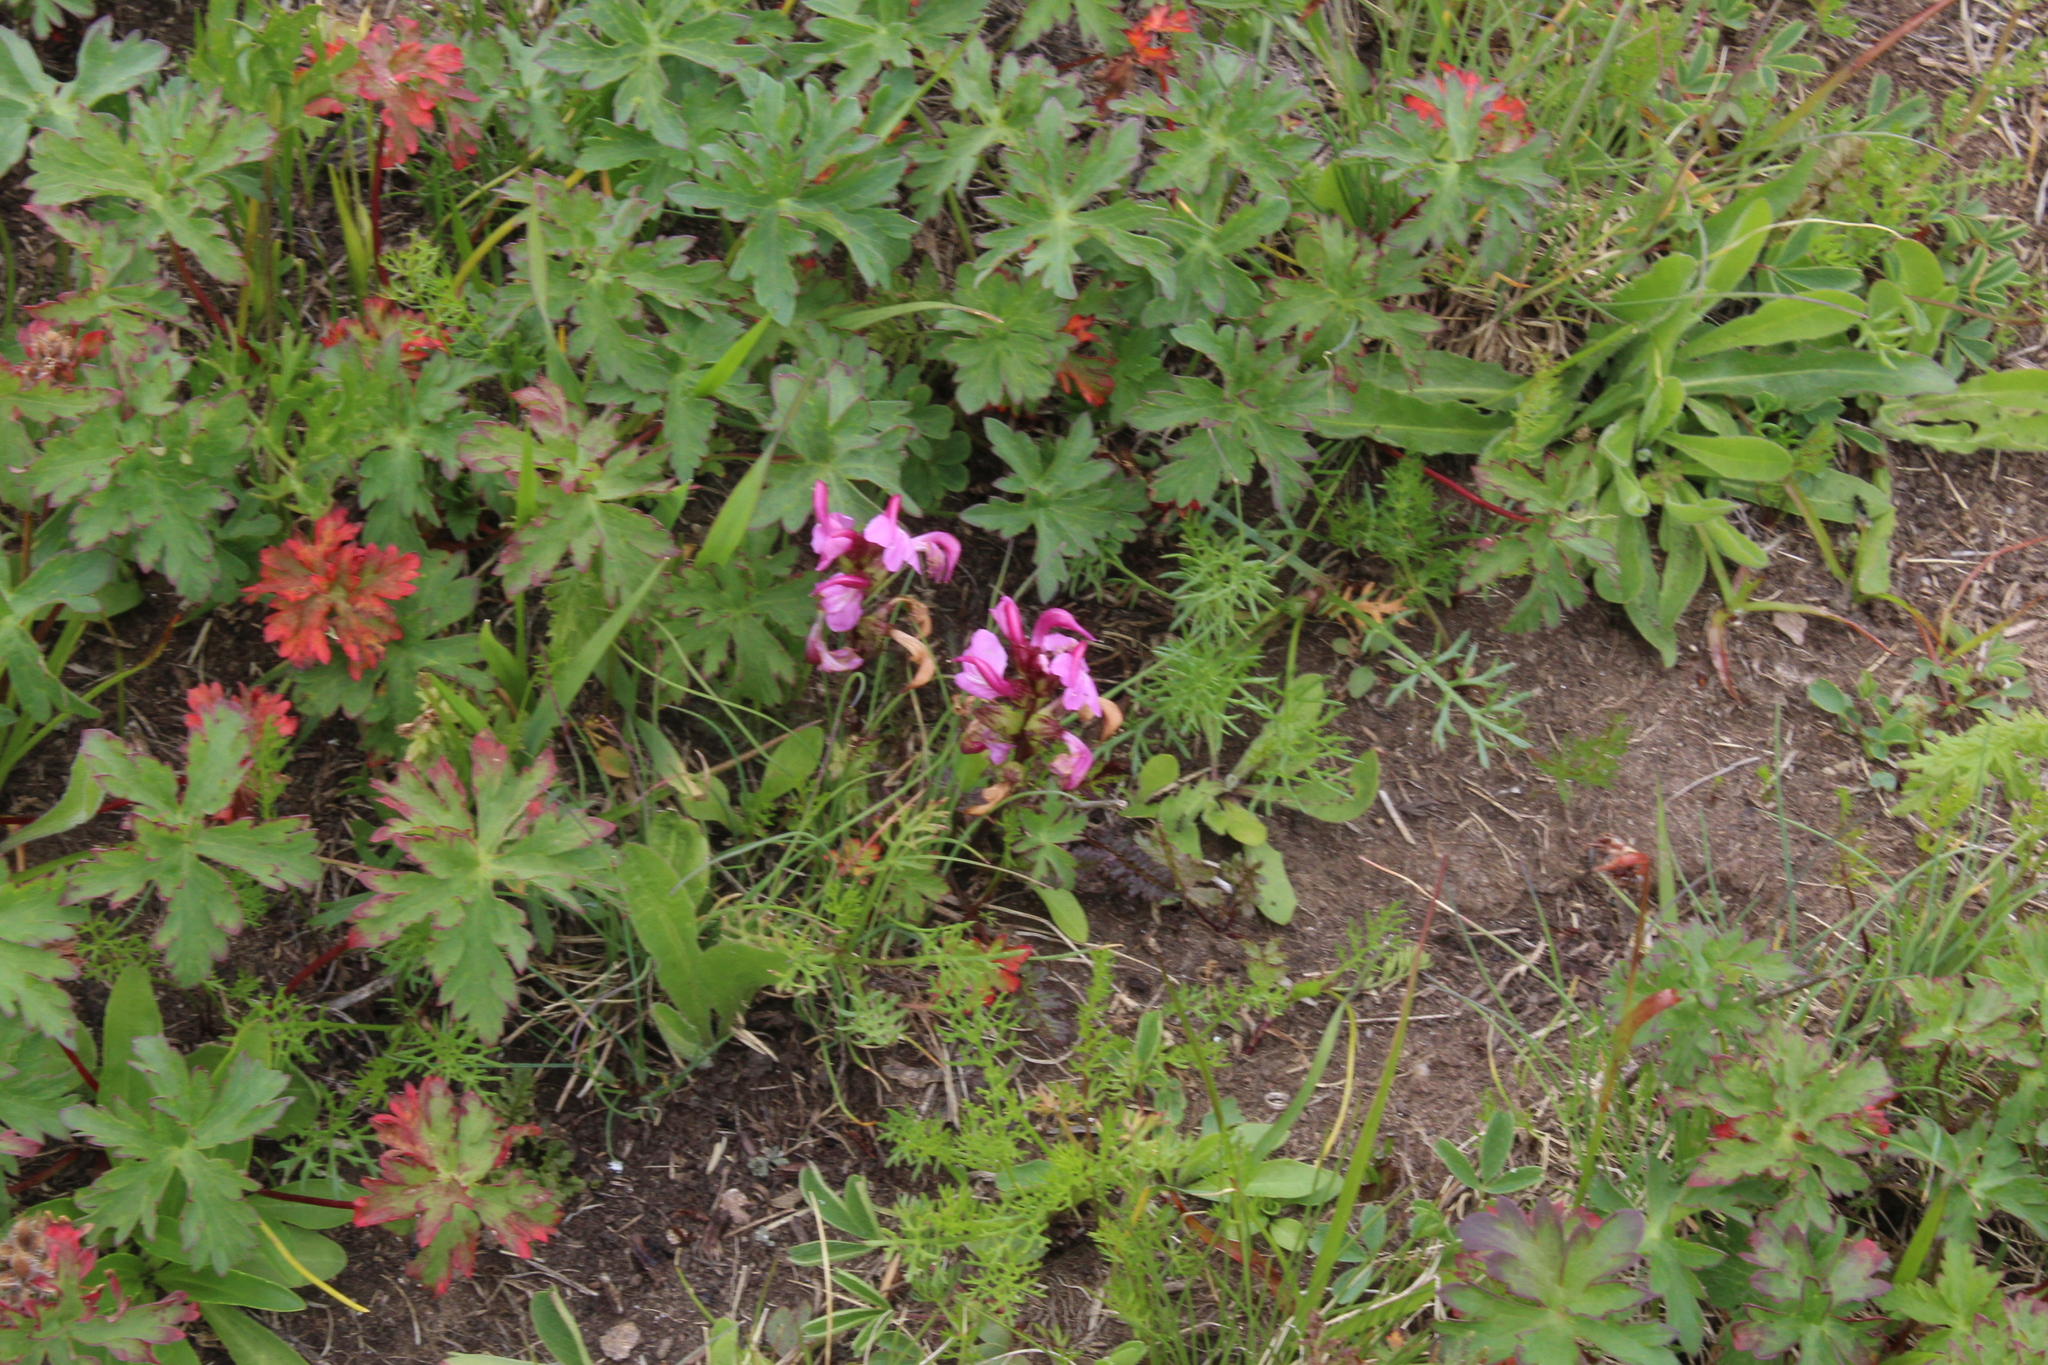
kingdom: Plantae
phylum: Tracheophyta
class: Magnoliopsida
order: Lamiales
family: Orobanchaceae
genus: Pedicularis
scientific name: Pedicularis nordmanniana
